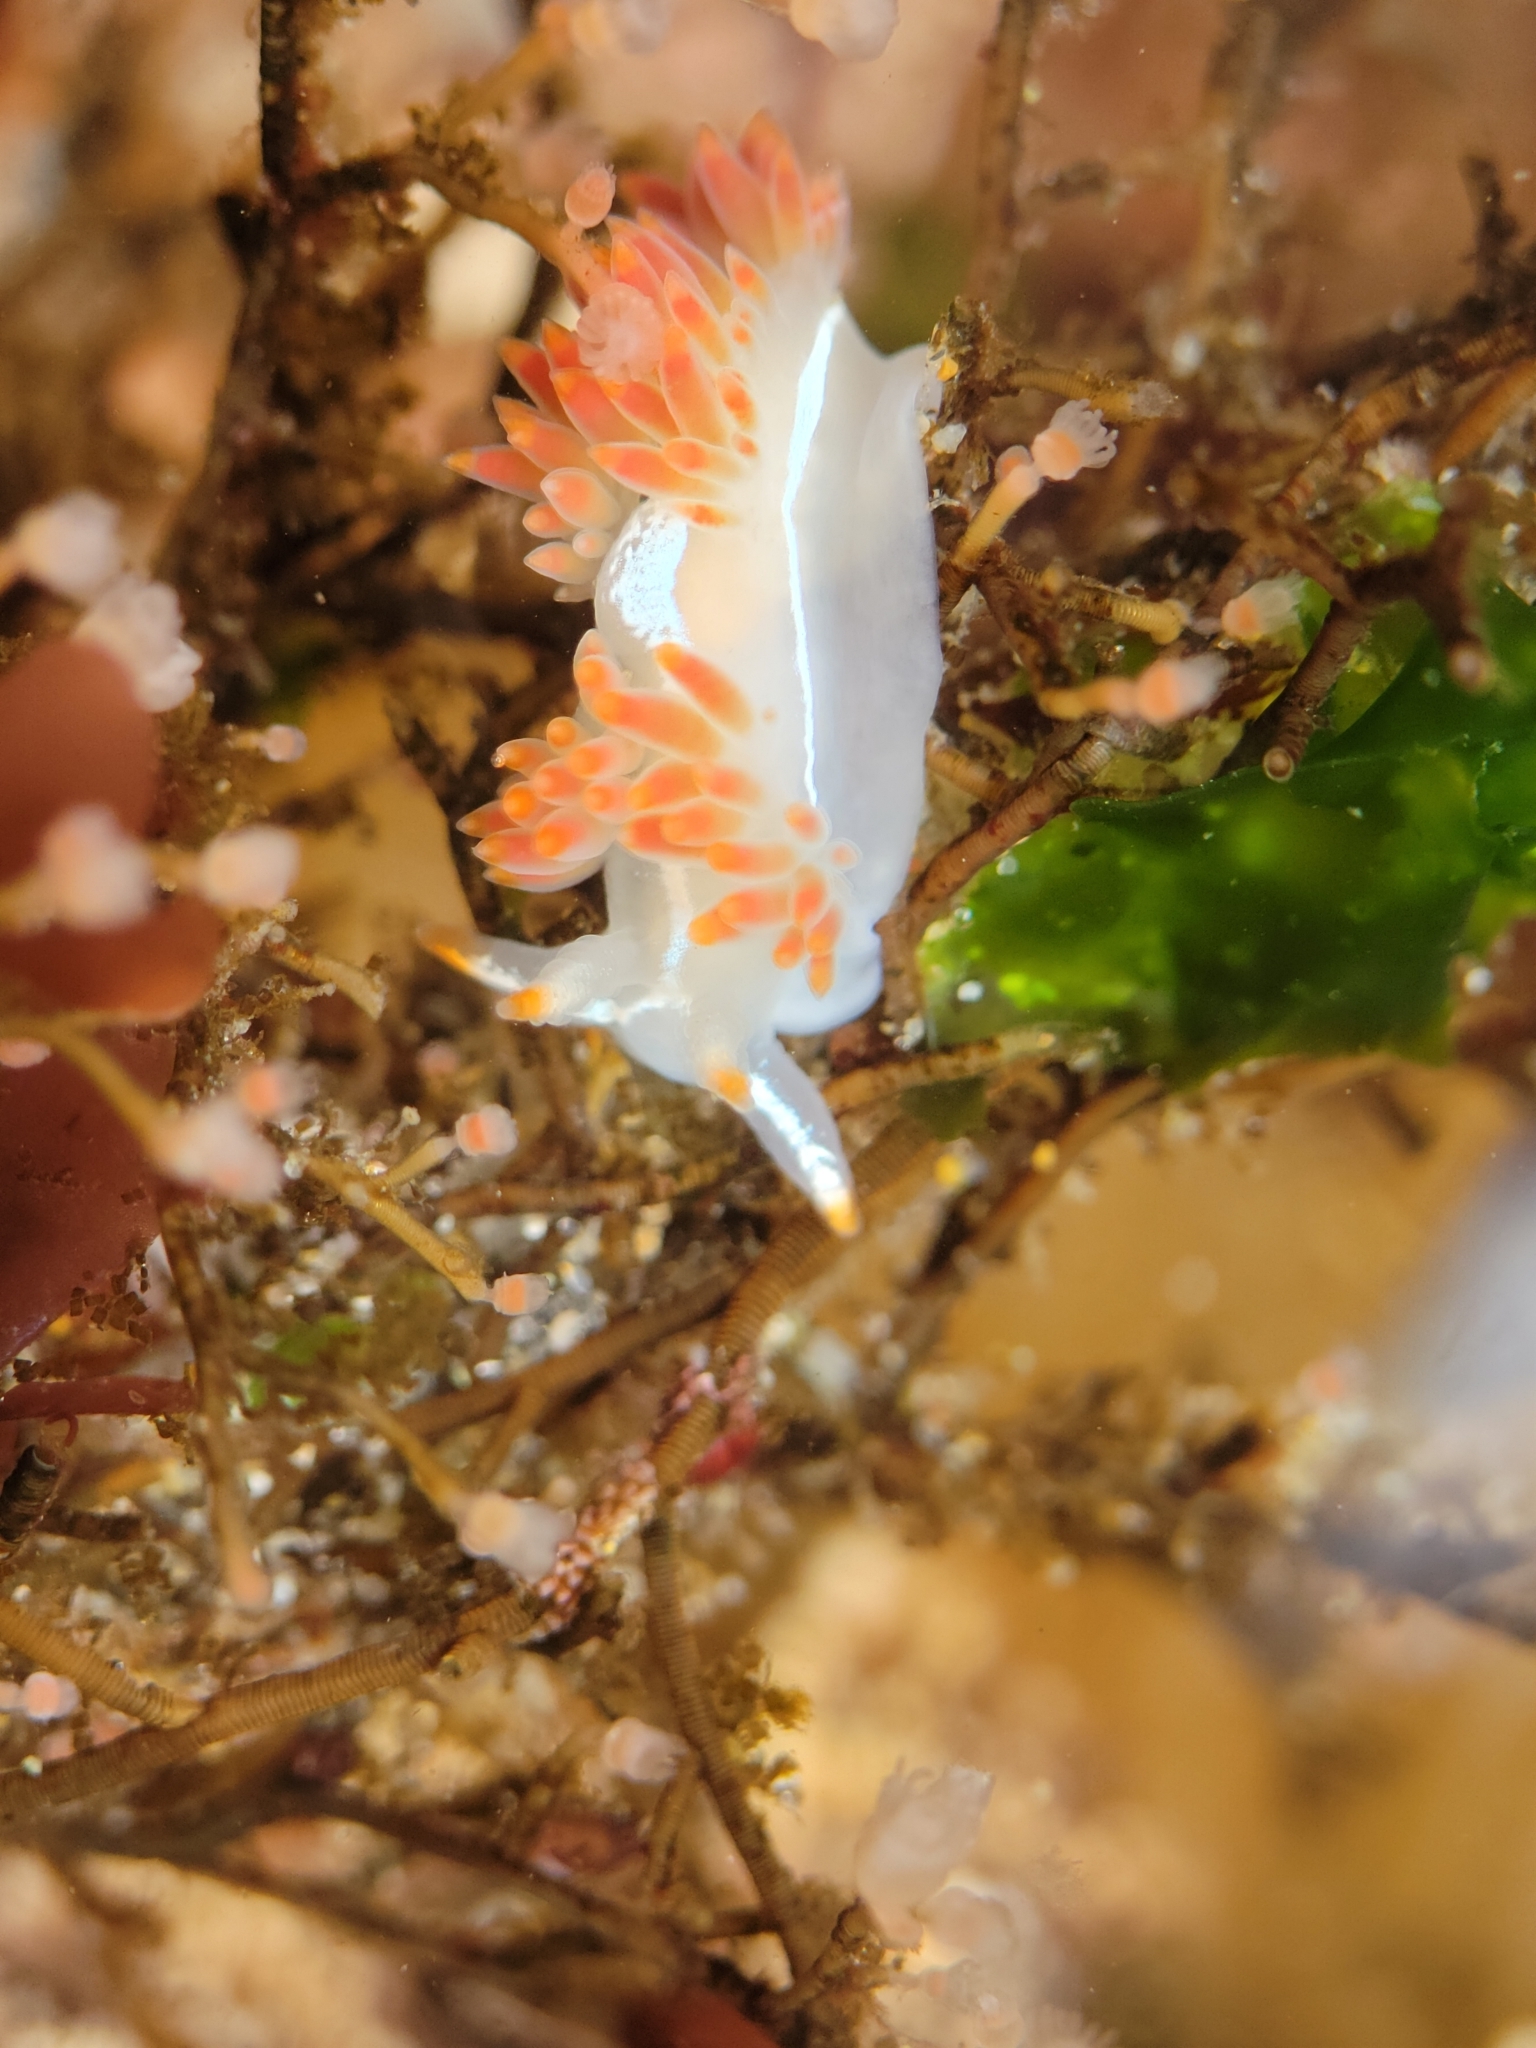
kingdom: Animalia
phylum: Mollusca
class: Gastropoda
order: Nudibranchia
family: Coryphellidae
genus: Coryphella
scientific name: Coryphella trilineata
